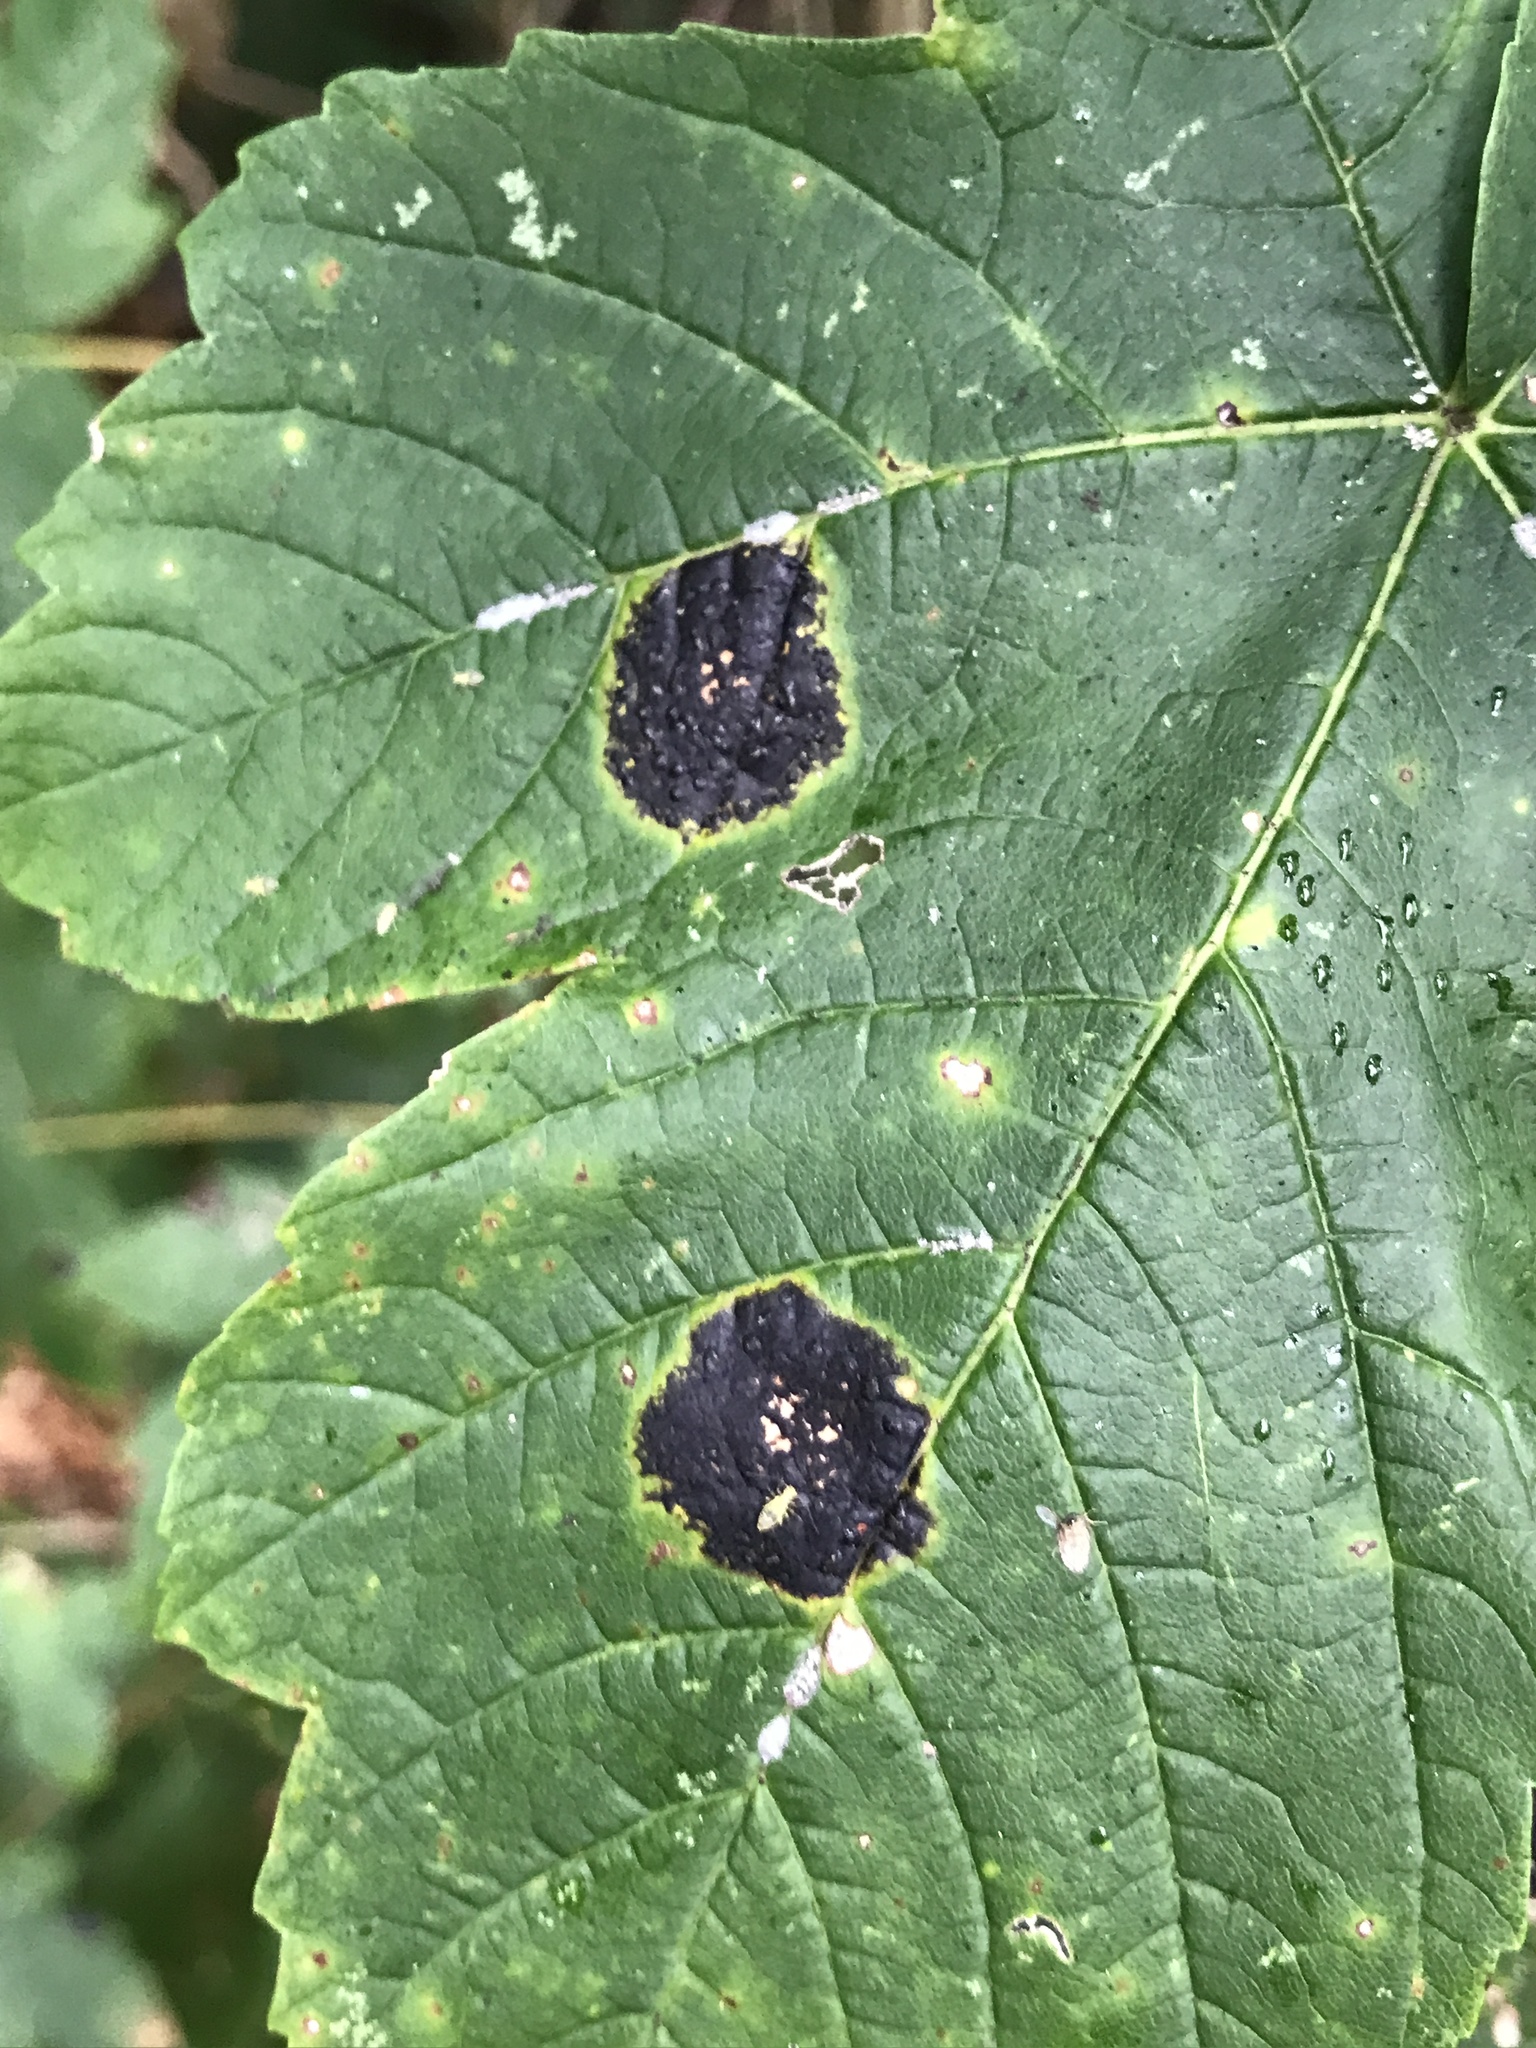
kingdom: Fungi
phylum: Ascomycota
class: Leotiomycetes
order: Rhytismatales
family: Rhytismataceae
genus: Rhytisma
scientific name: Rhytisma acerinum
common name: European tar spot
